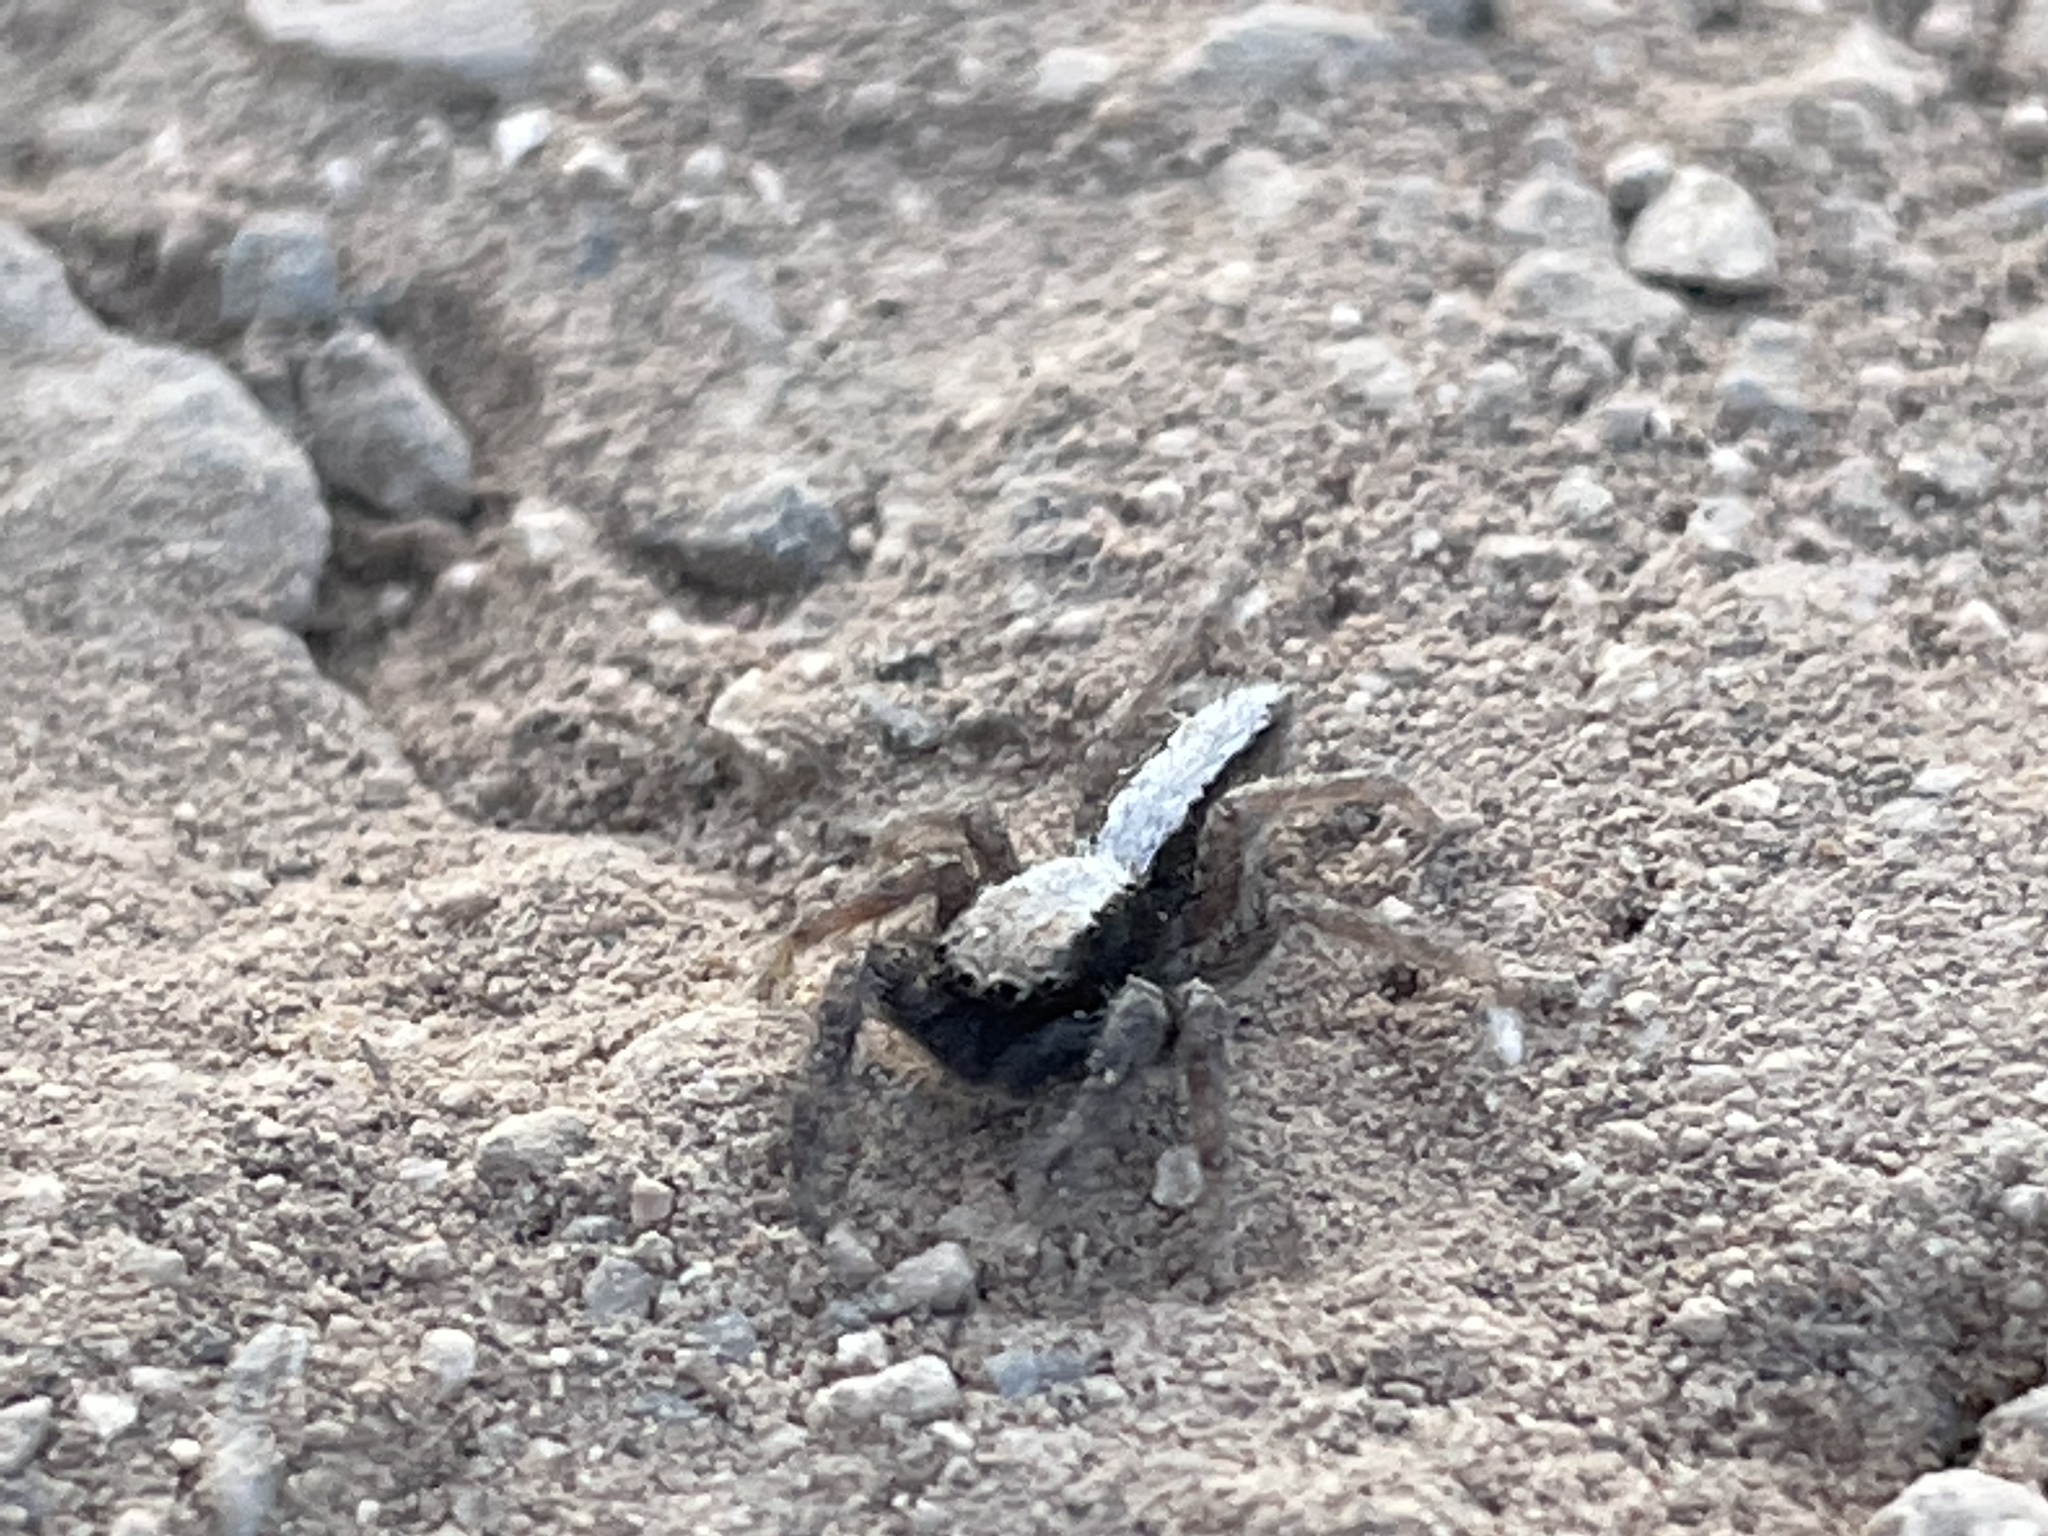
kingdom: Animalia
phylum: Arthropoda
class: Arachnida
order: Araneae
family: Salticidae
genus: Platycryptus
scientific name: Platycryptus californicus
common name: Jumping spiders
